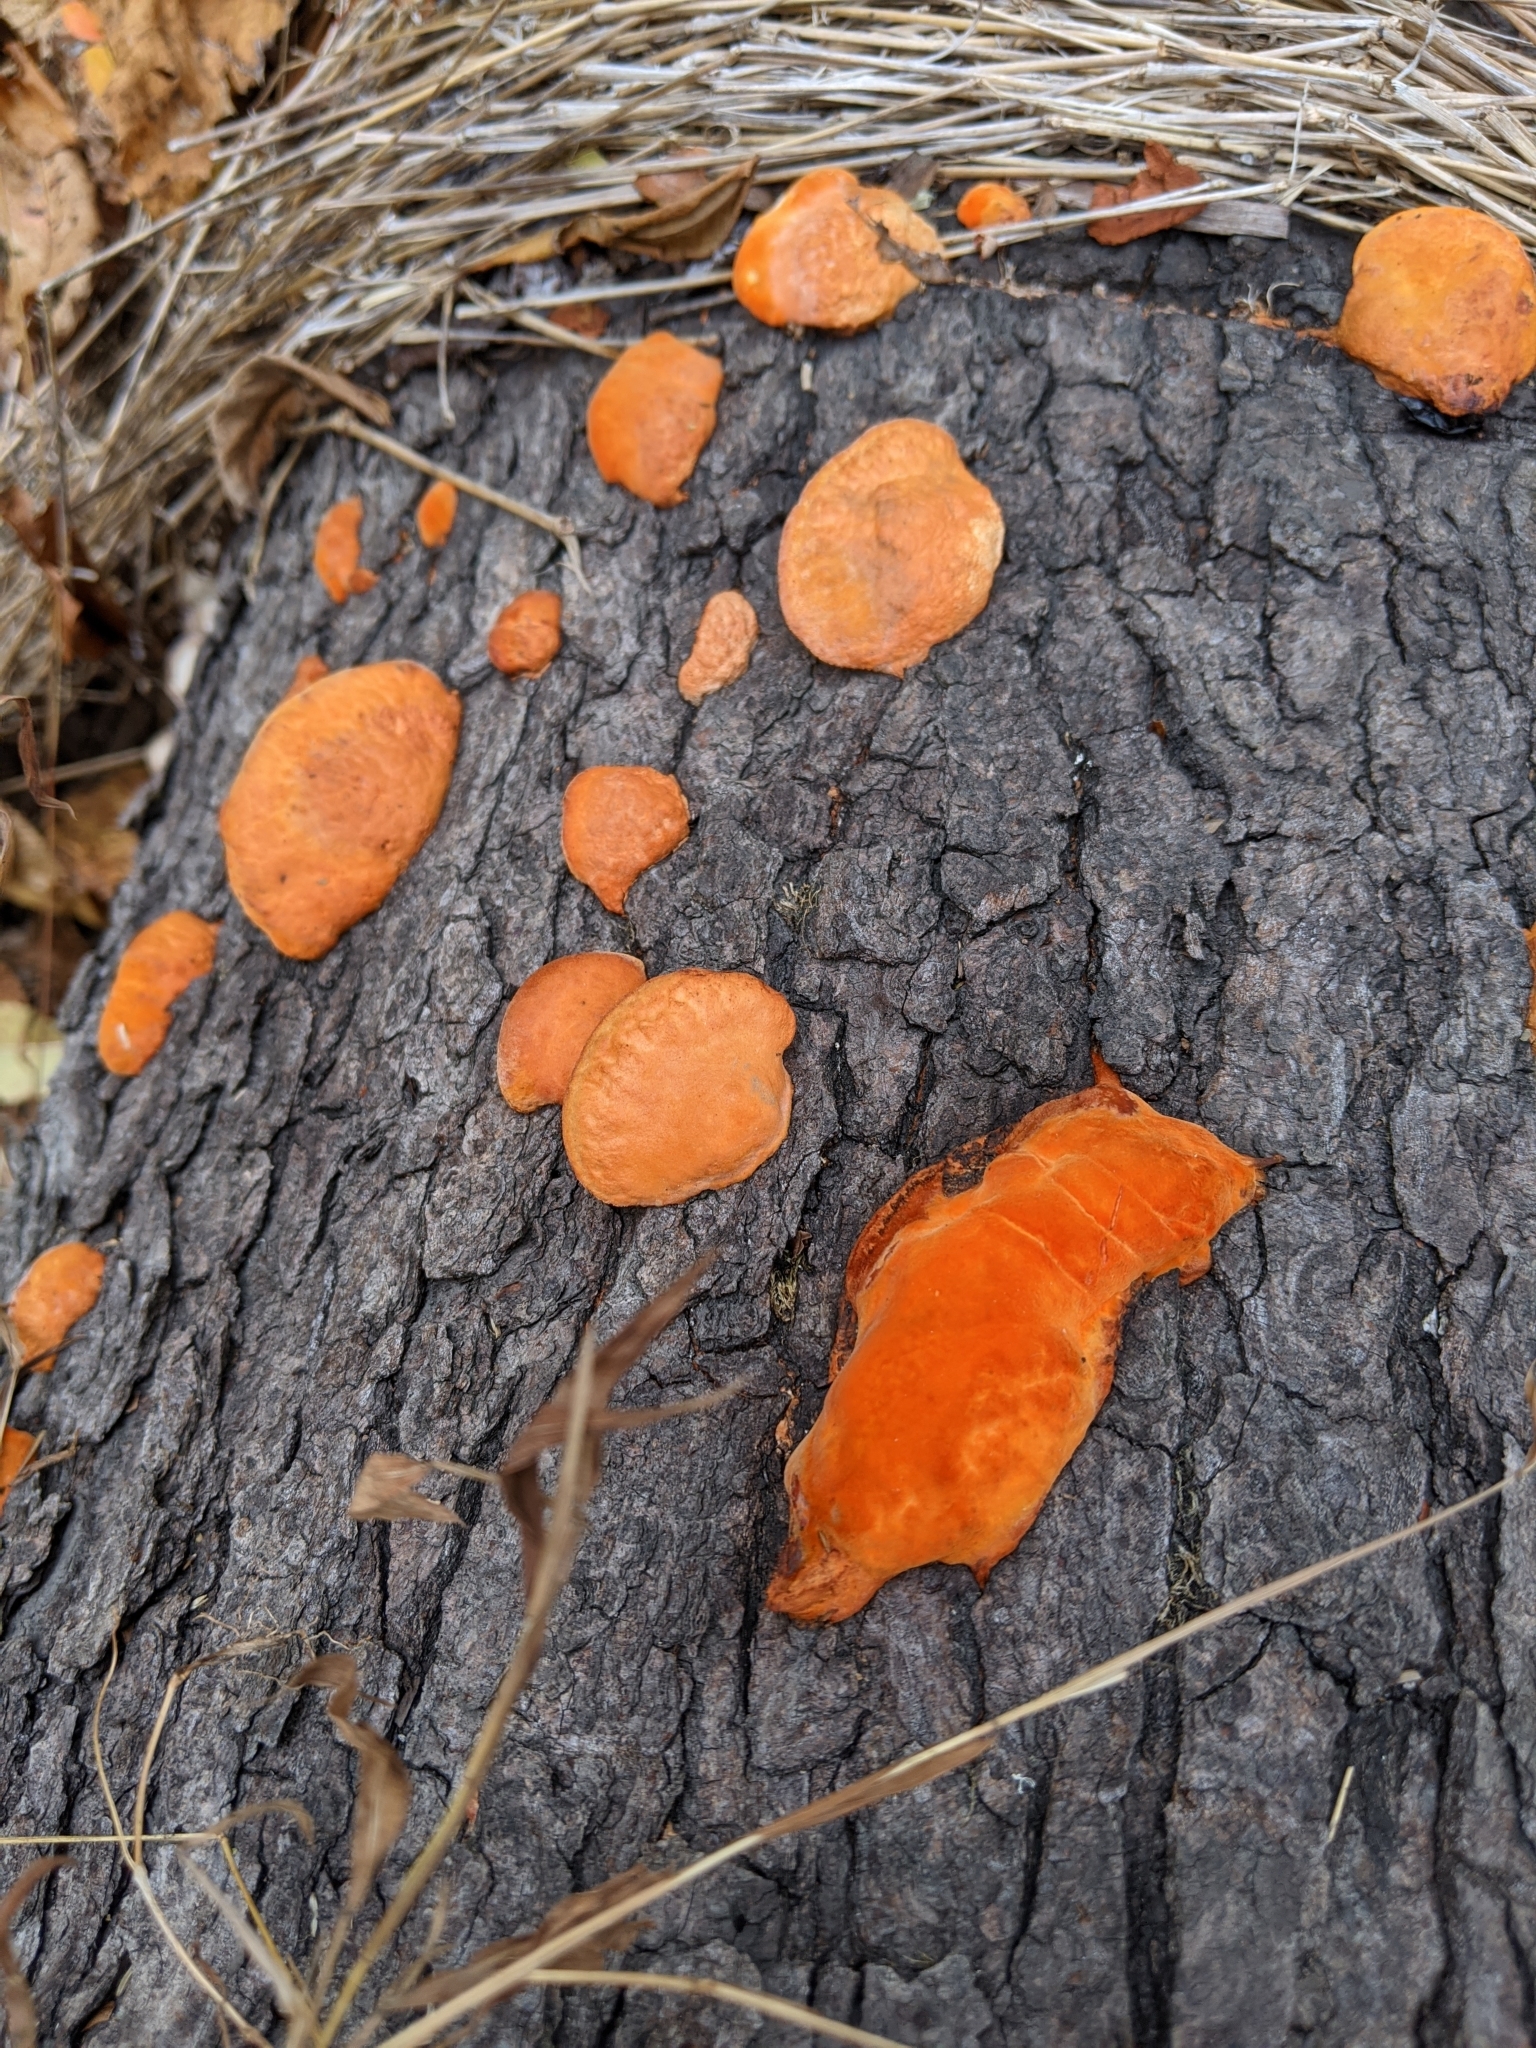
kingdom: Fungi
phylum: Basidiomycota
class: Agaricomycetes
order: Polyporales
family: Polyporaceae
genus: Trametes
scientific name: Trametes cinnabarina
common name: Northern cinnabar polypore
